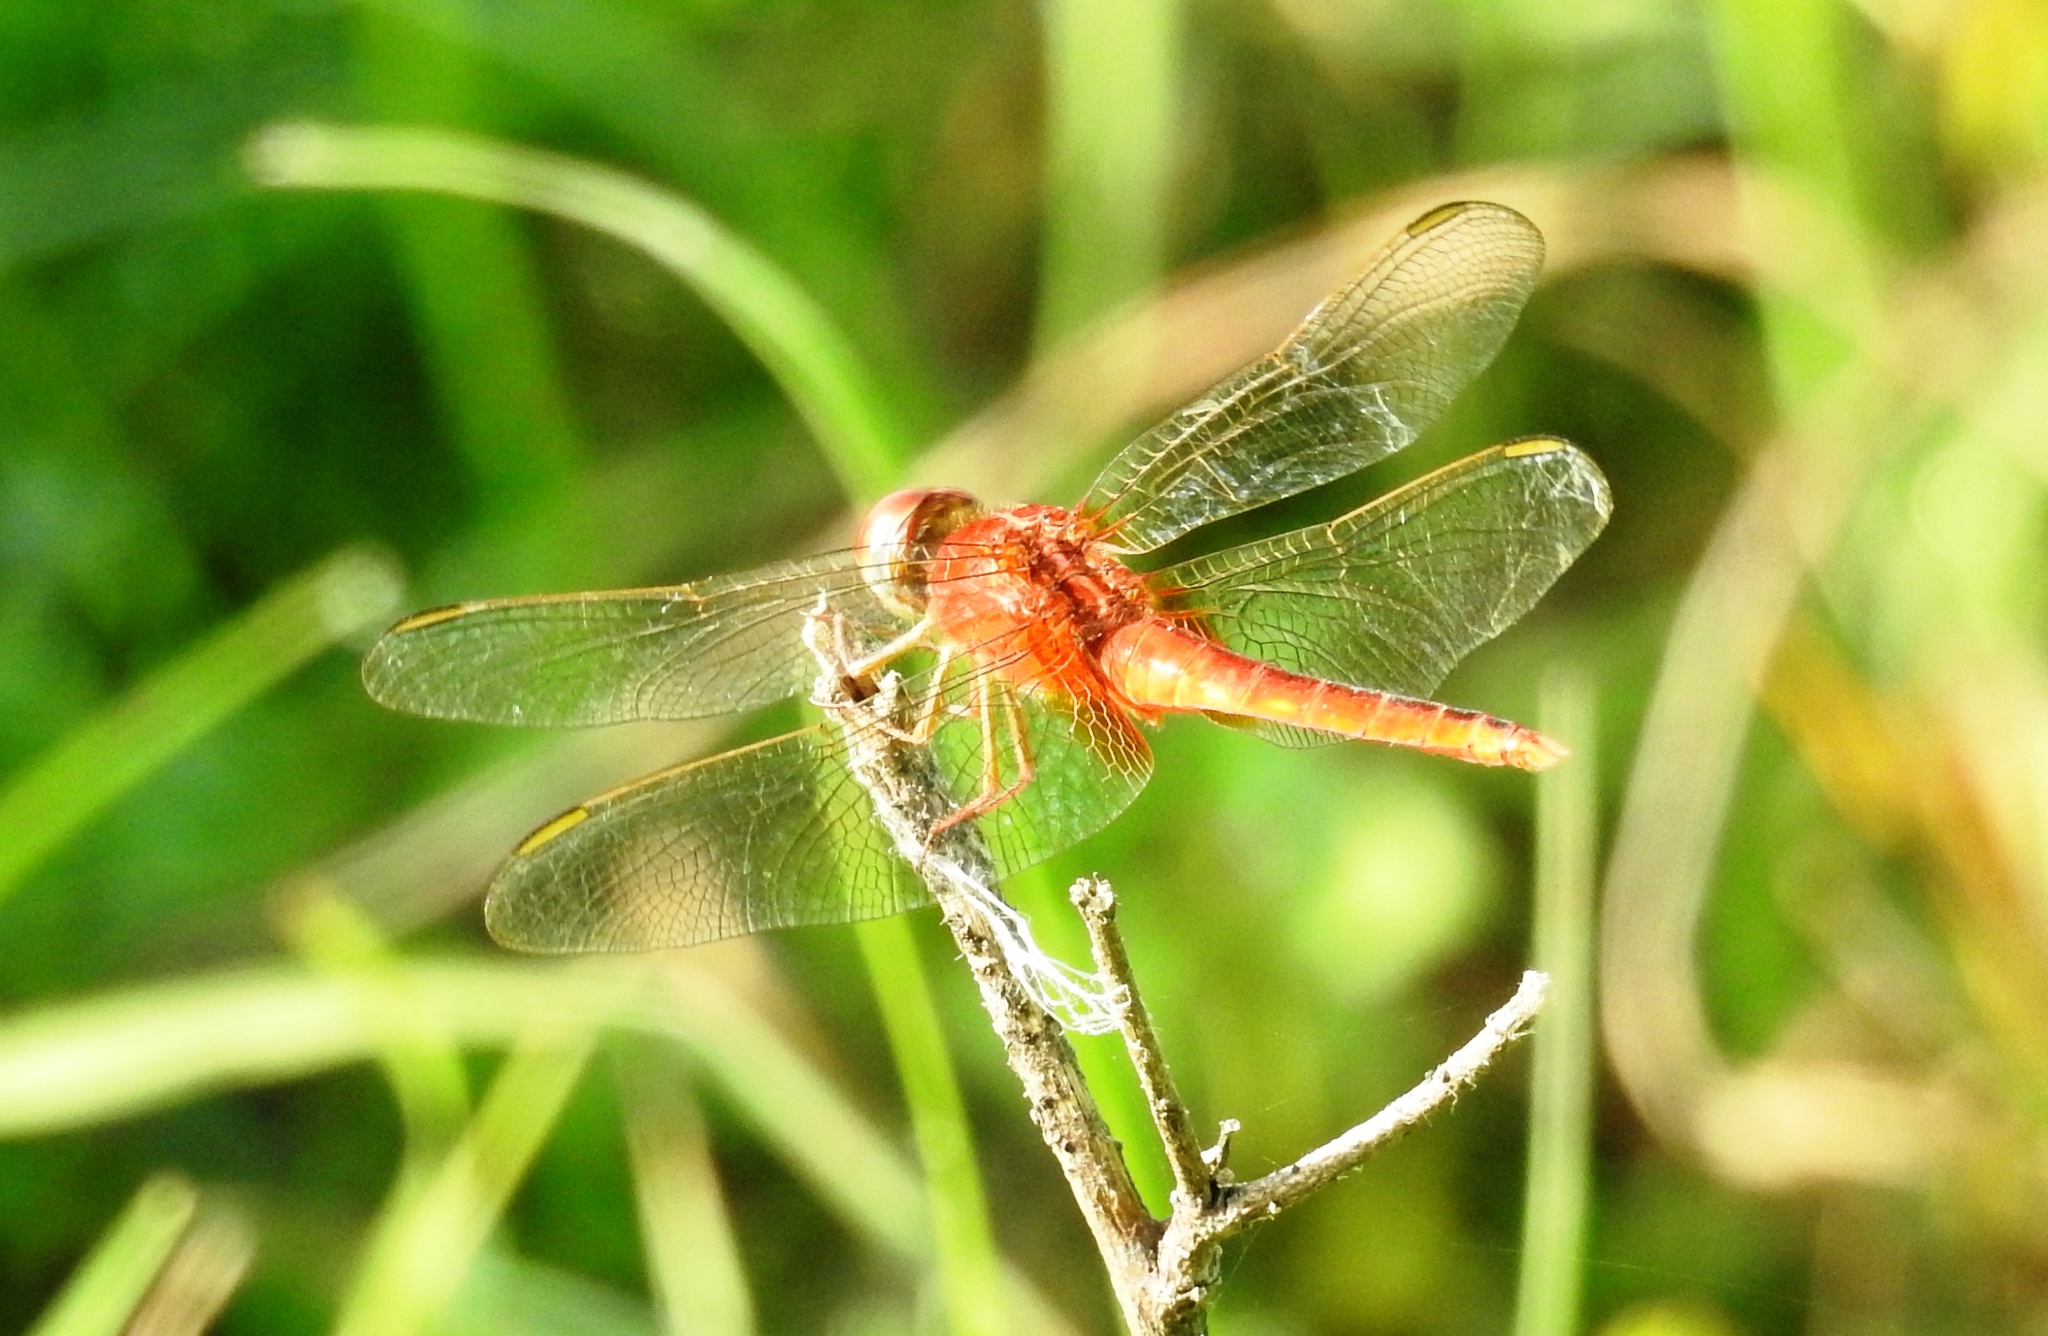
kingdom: Animalia
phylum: Arthropoda
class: Insecta
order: Odonata
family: Libellulidae
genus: Crocothemis
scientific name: Crocothemis servilia
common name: Scarlet skimmer
